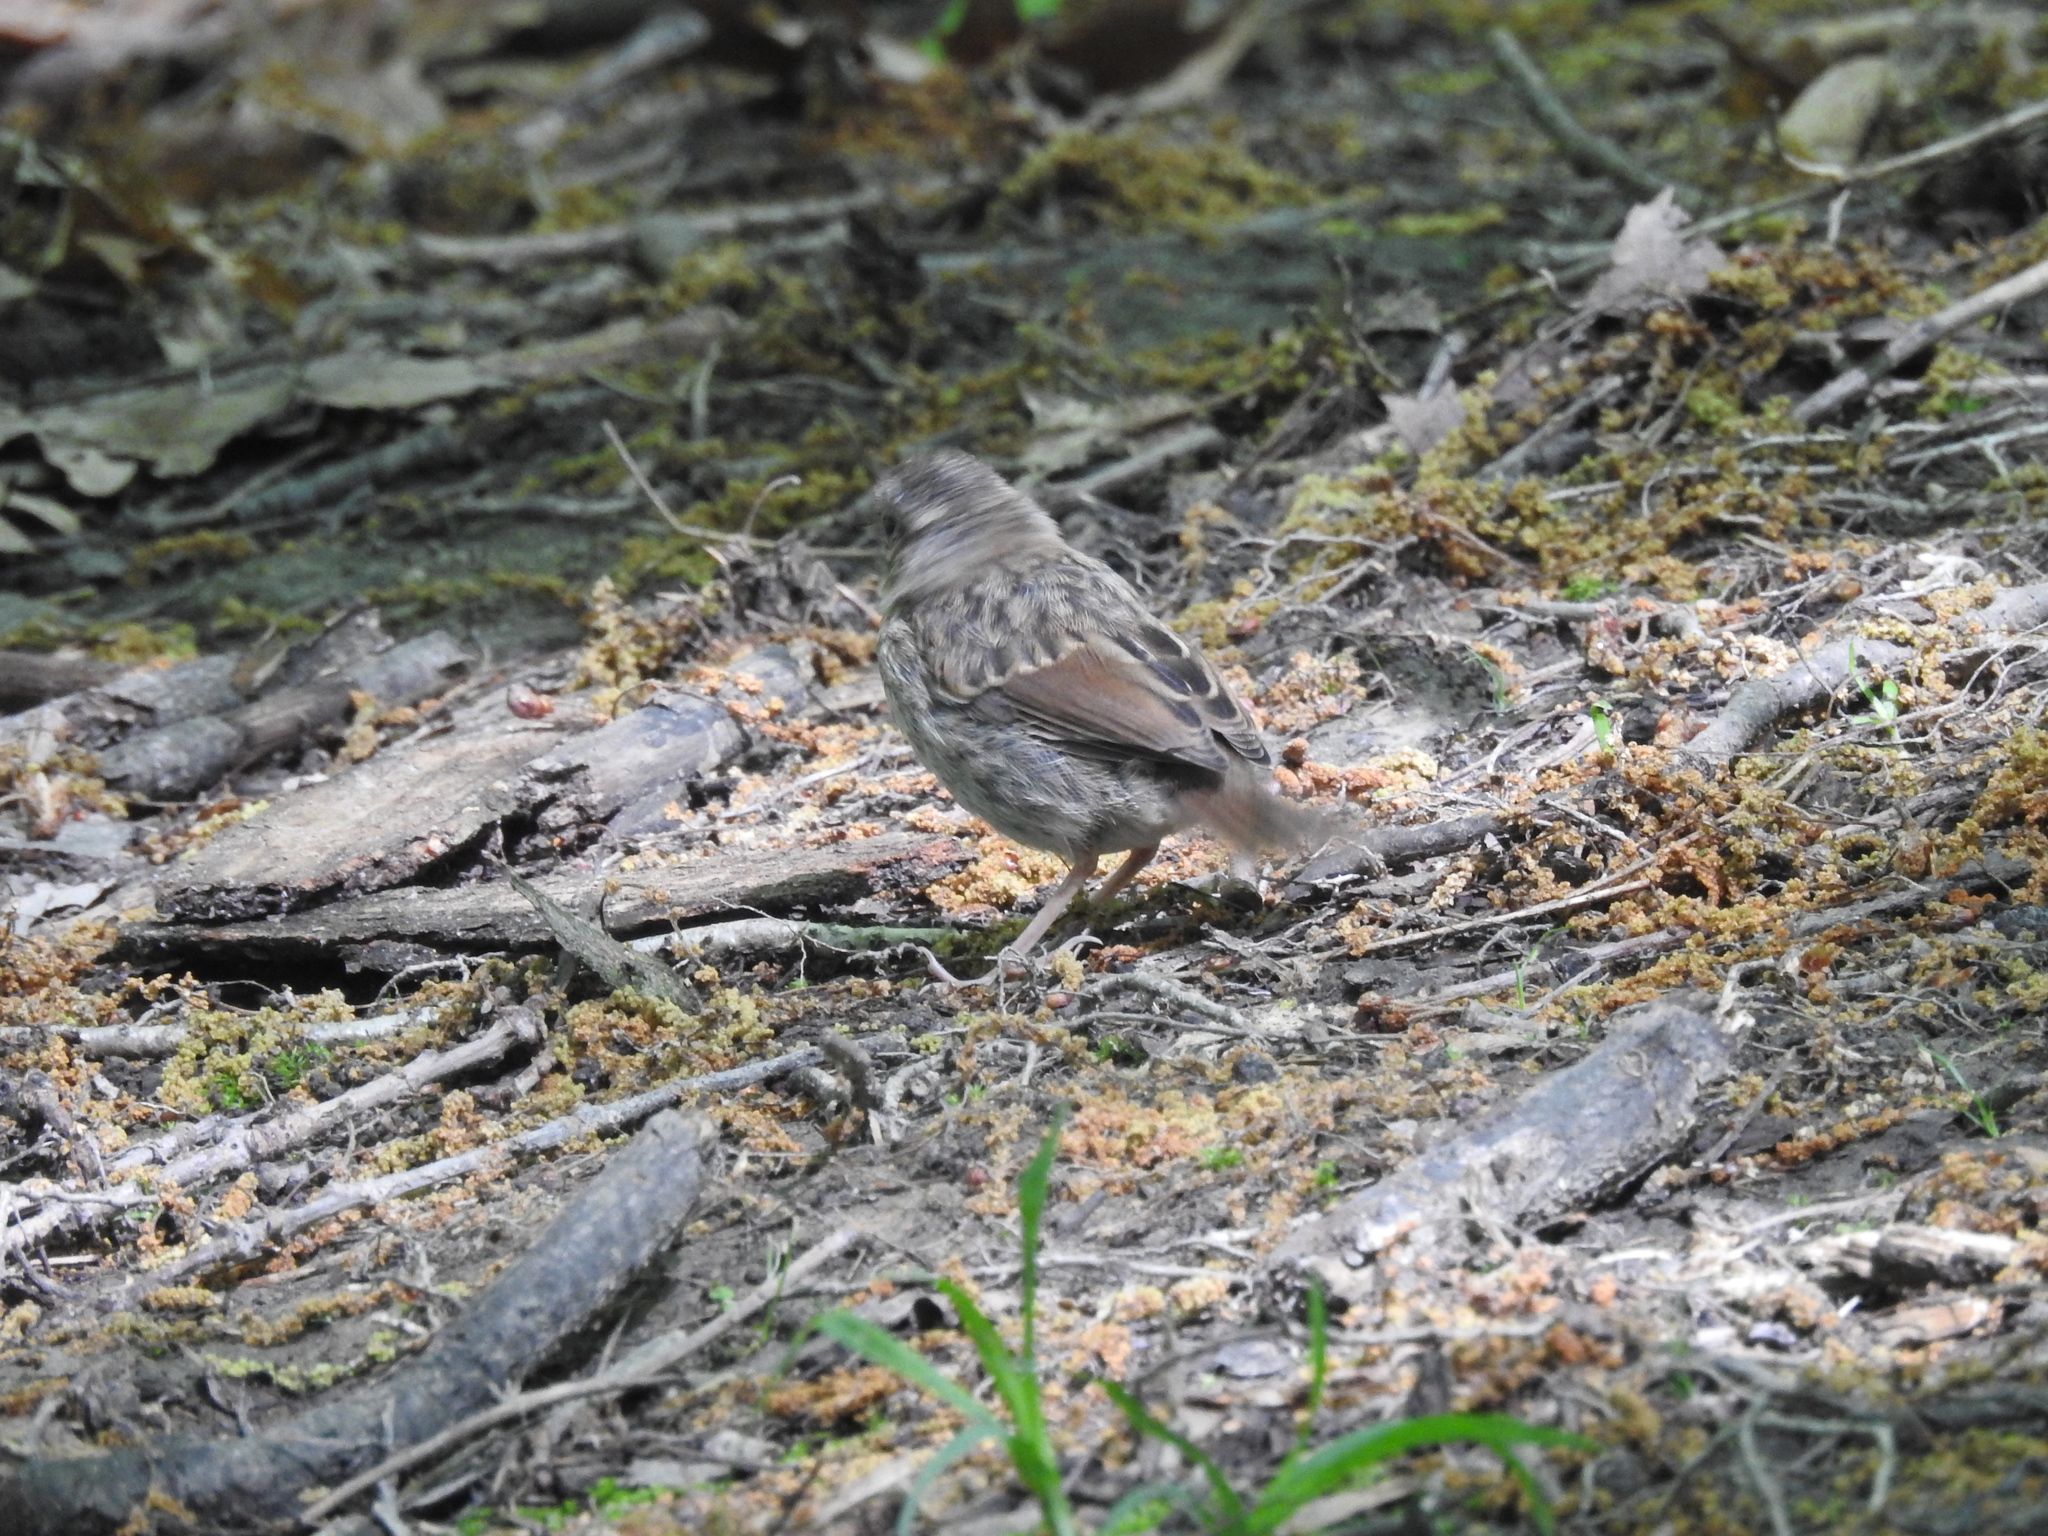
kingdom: Animalia
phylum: Chordata
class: Aves
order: Passeriformes
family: Passerellidae
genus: Melospiza
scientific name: Melospiza melodia
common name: Song sparrow
